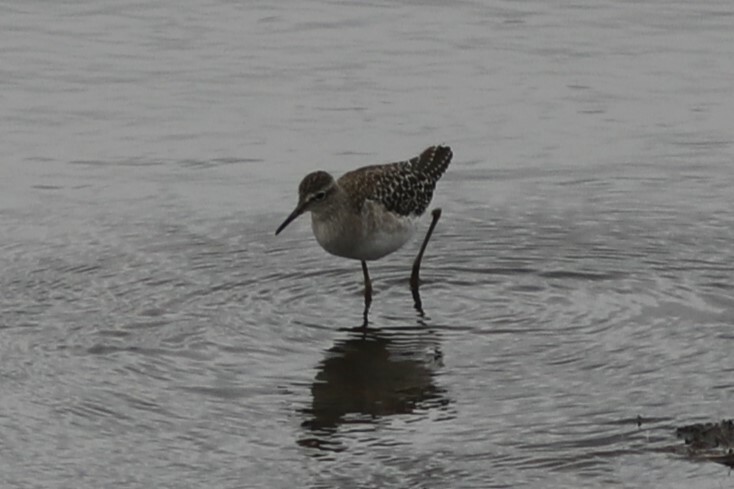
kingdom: Animalia
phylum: Chordata
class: Aves
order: Charadriiformes
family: Scolopacidae
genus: Tringa
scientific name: Tringa glareola
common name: Wood sandpiper
